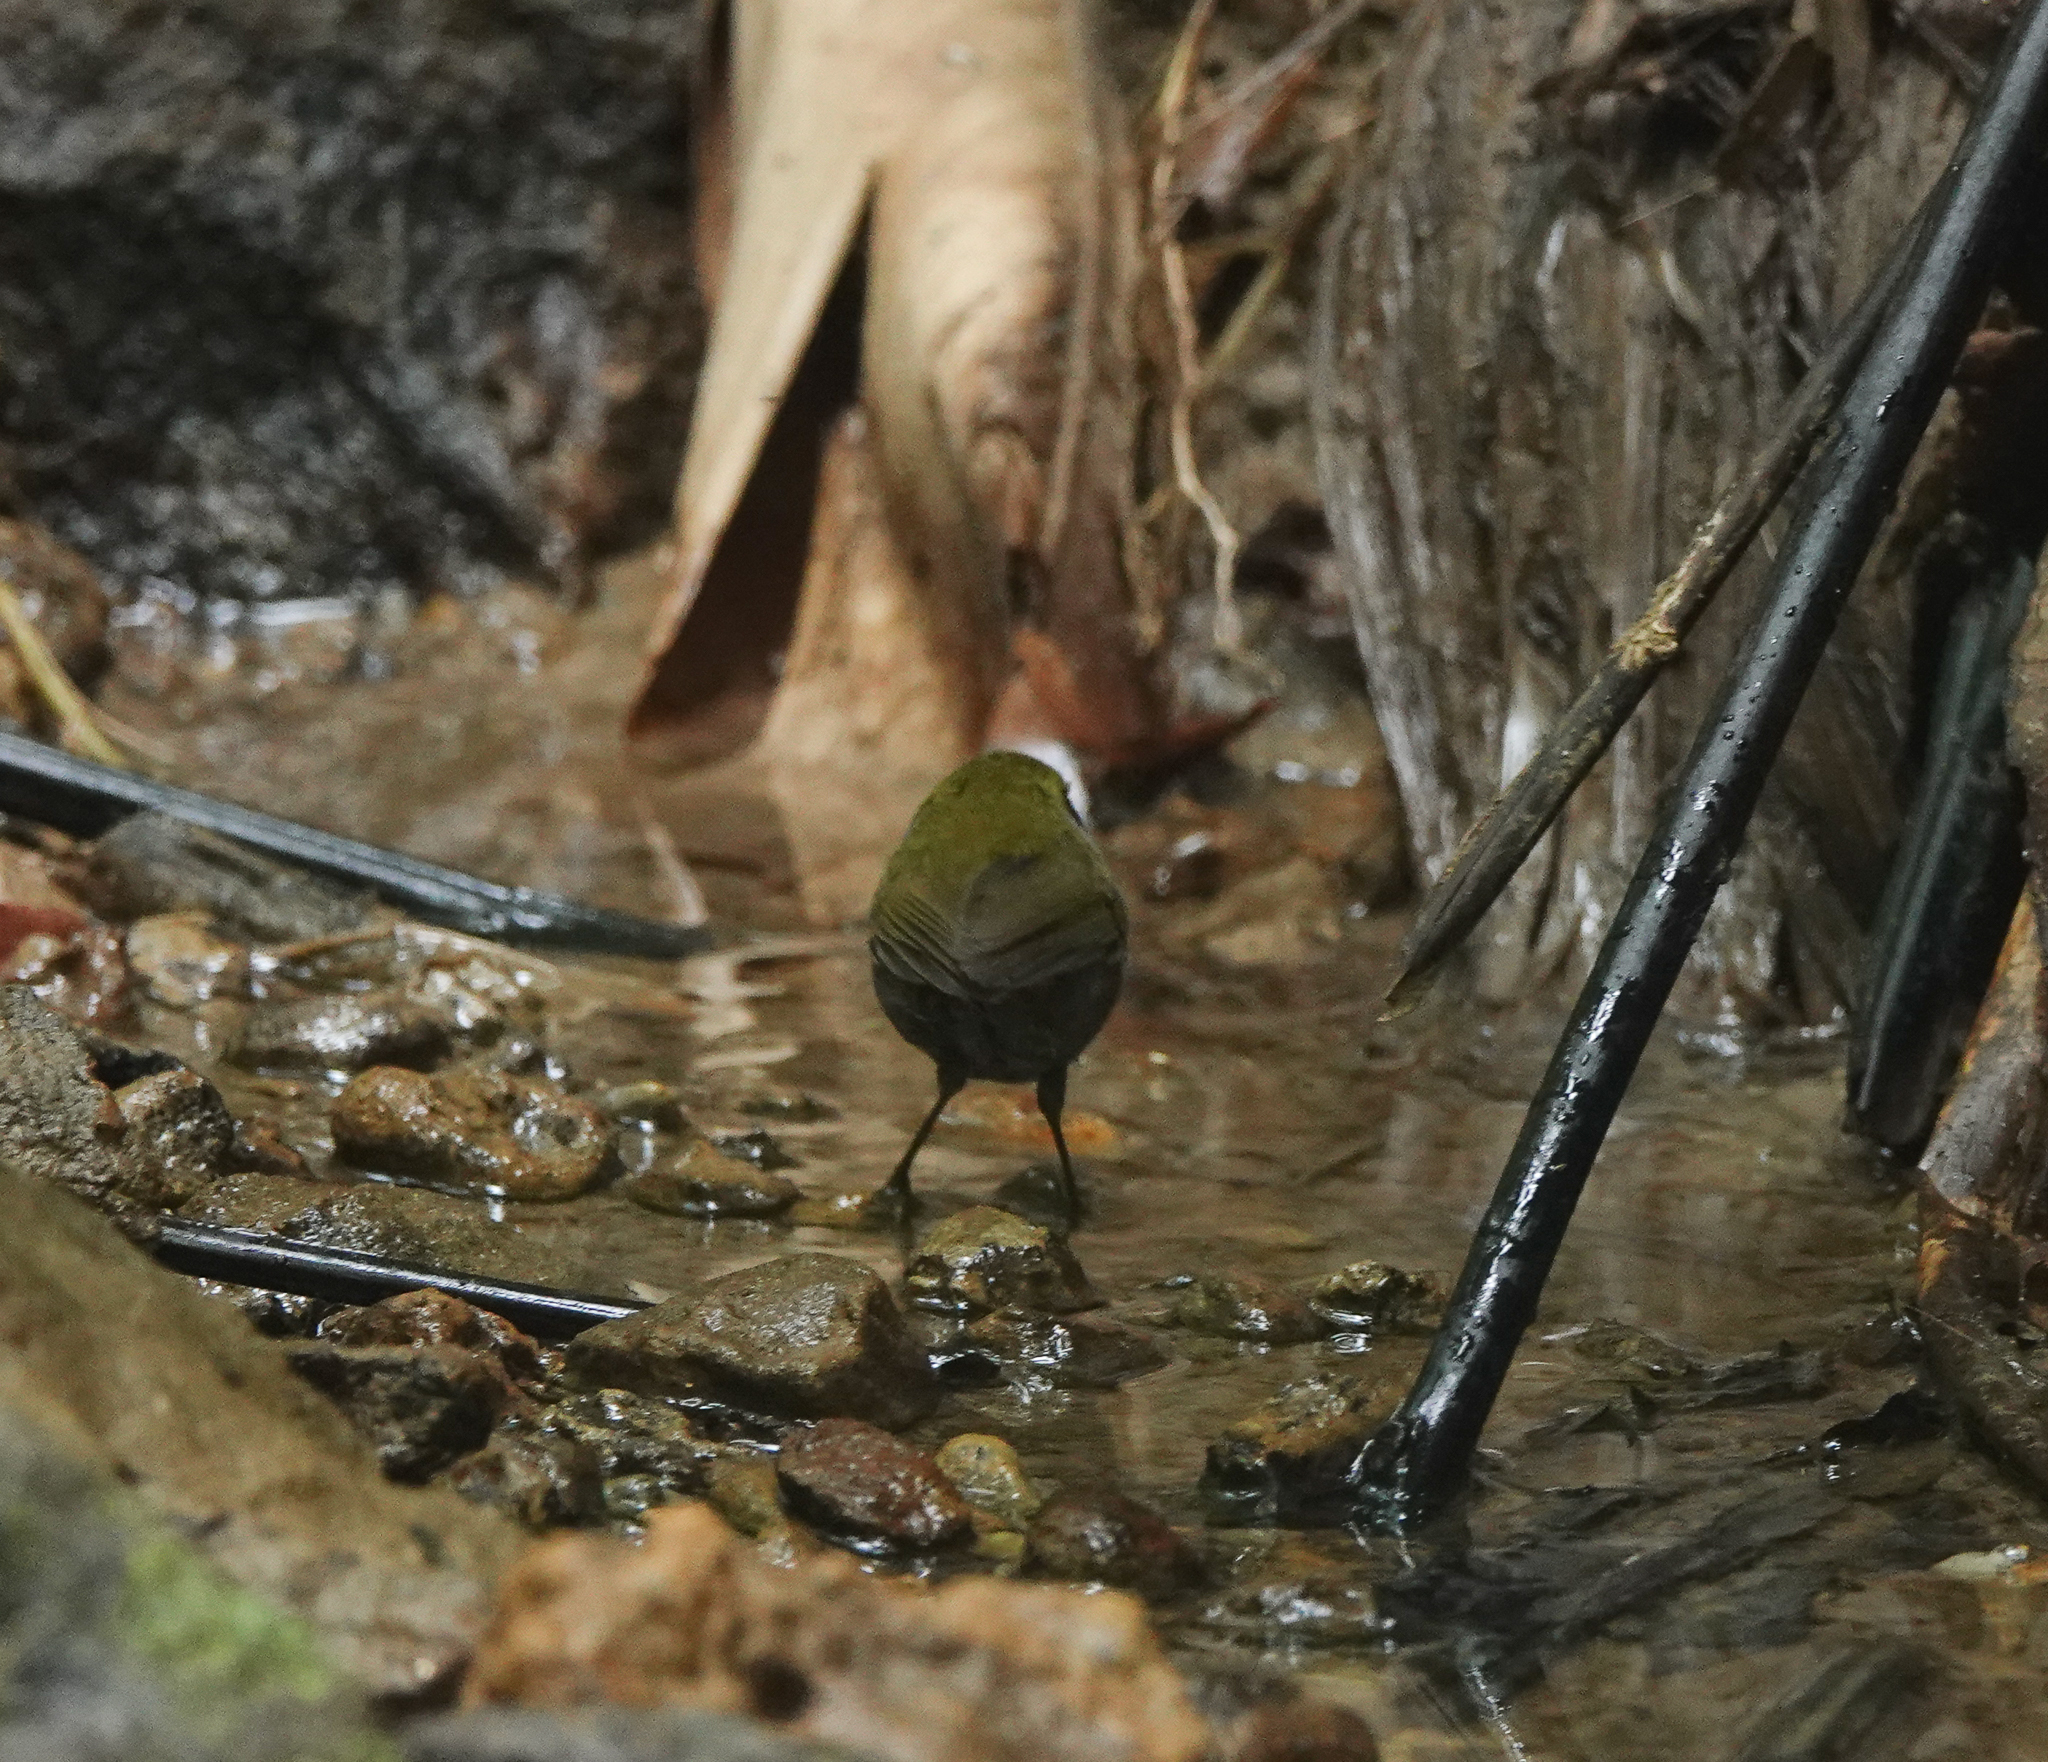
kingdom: Animalia
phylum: Chordata
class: Aves
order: Passeriformes
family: Cettiidae
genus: Tesia
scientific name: Tesia cyaniventer
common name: Grey-bellied tesia
